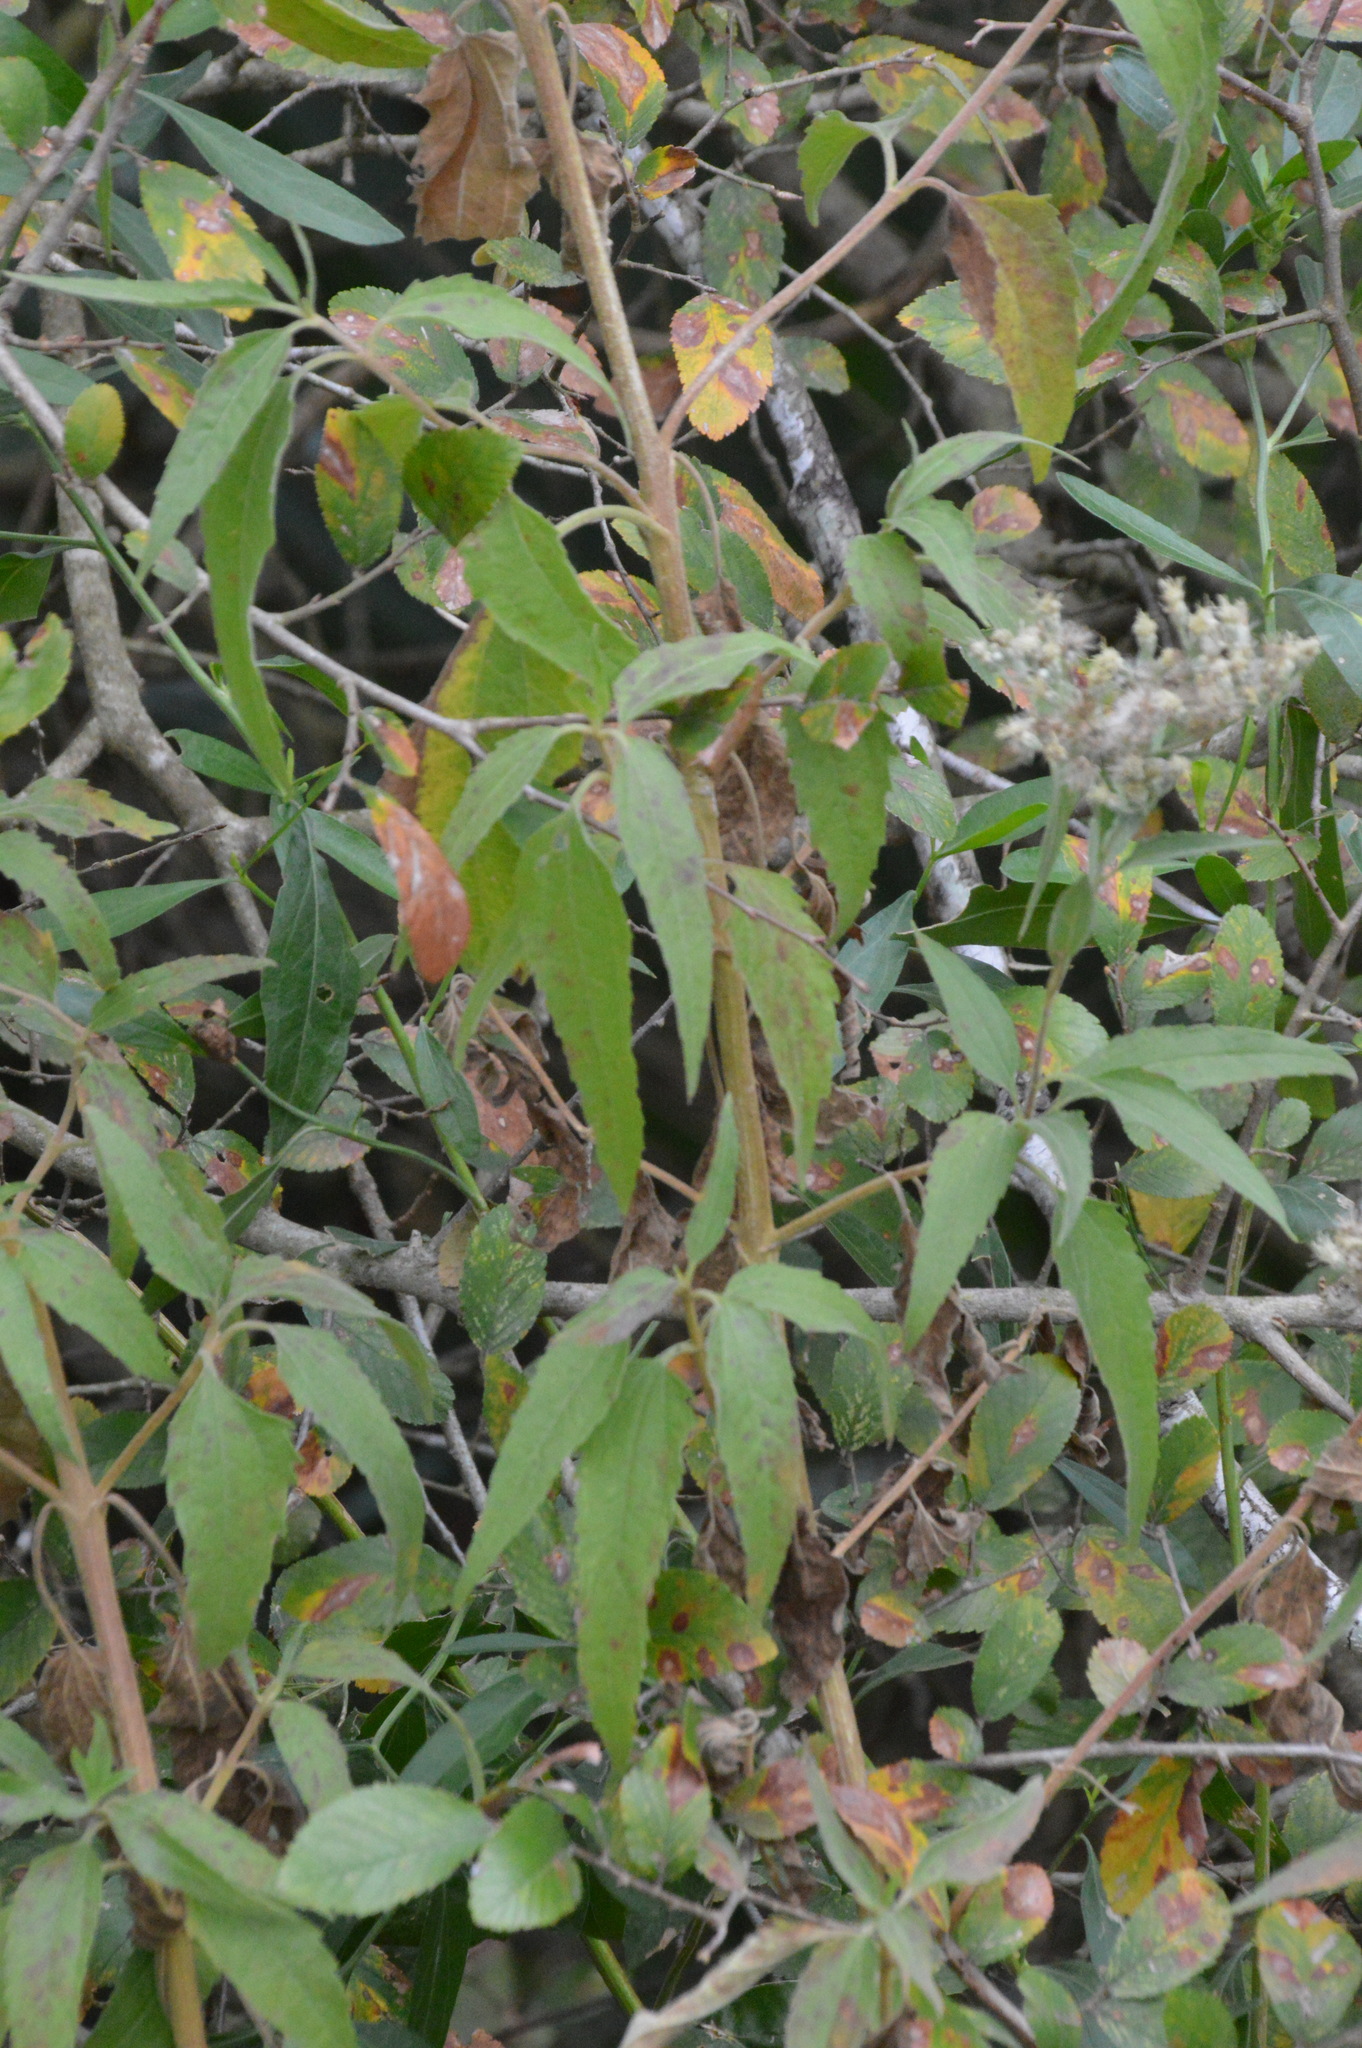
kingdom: Plantae
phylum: Tracheophyta
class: Magnoliopsida
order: Asterales
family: Asteraceae
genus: Eupatorium
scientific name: Eupatorium serotinum
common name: Late boneset
